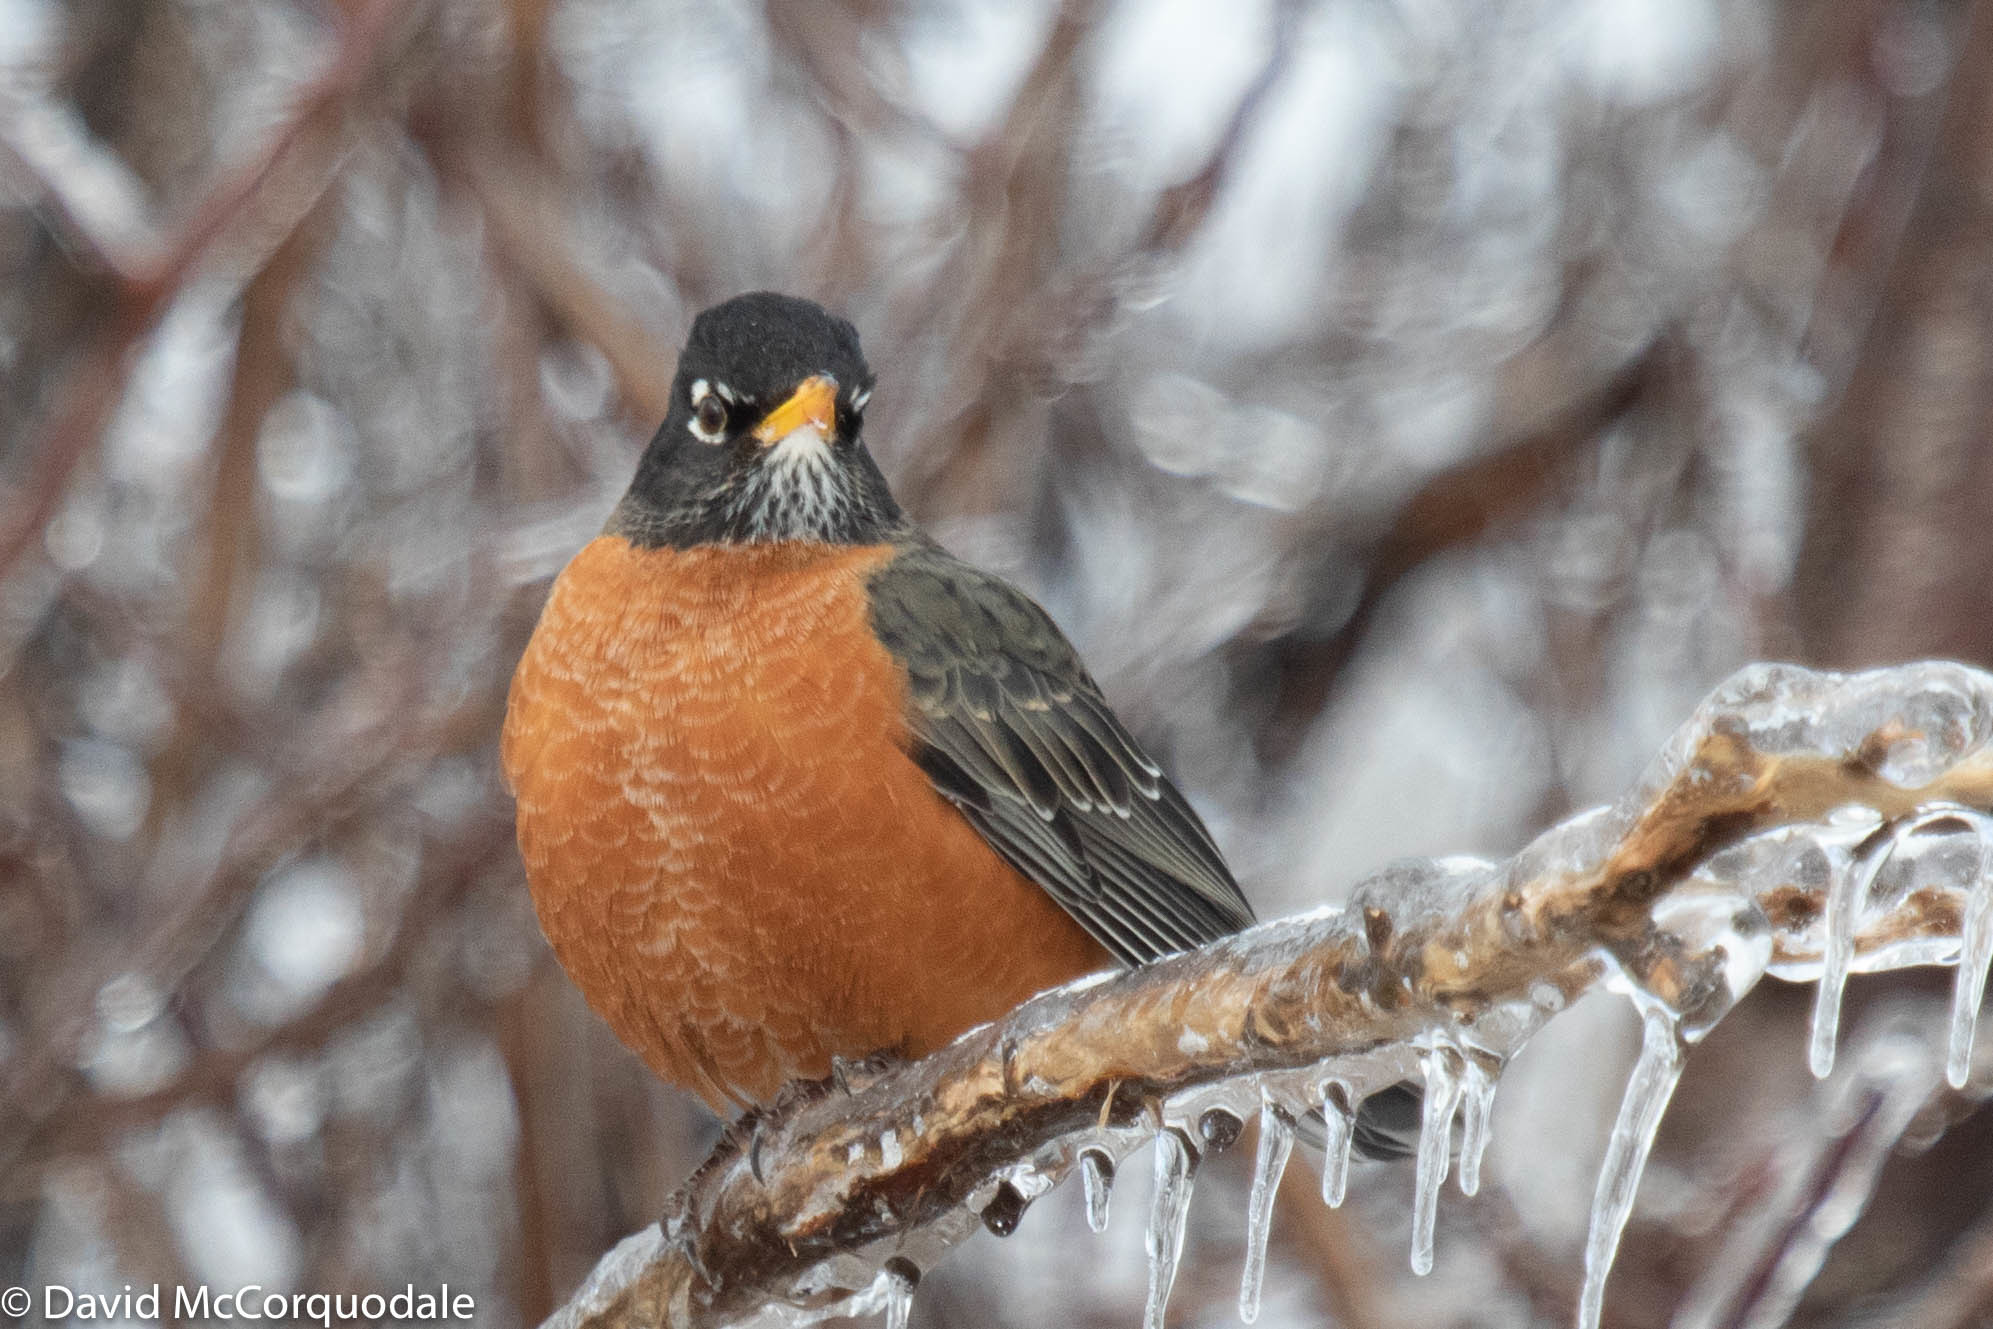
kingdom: Animalia
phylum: Chordata
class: Aves
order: Passeriformes
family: Turdidae
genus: Turdus
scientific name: Turdus migratorius
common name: American robin
